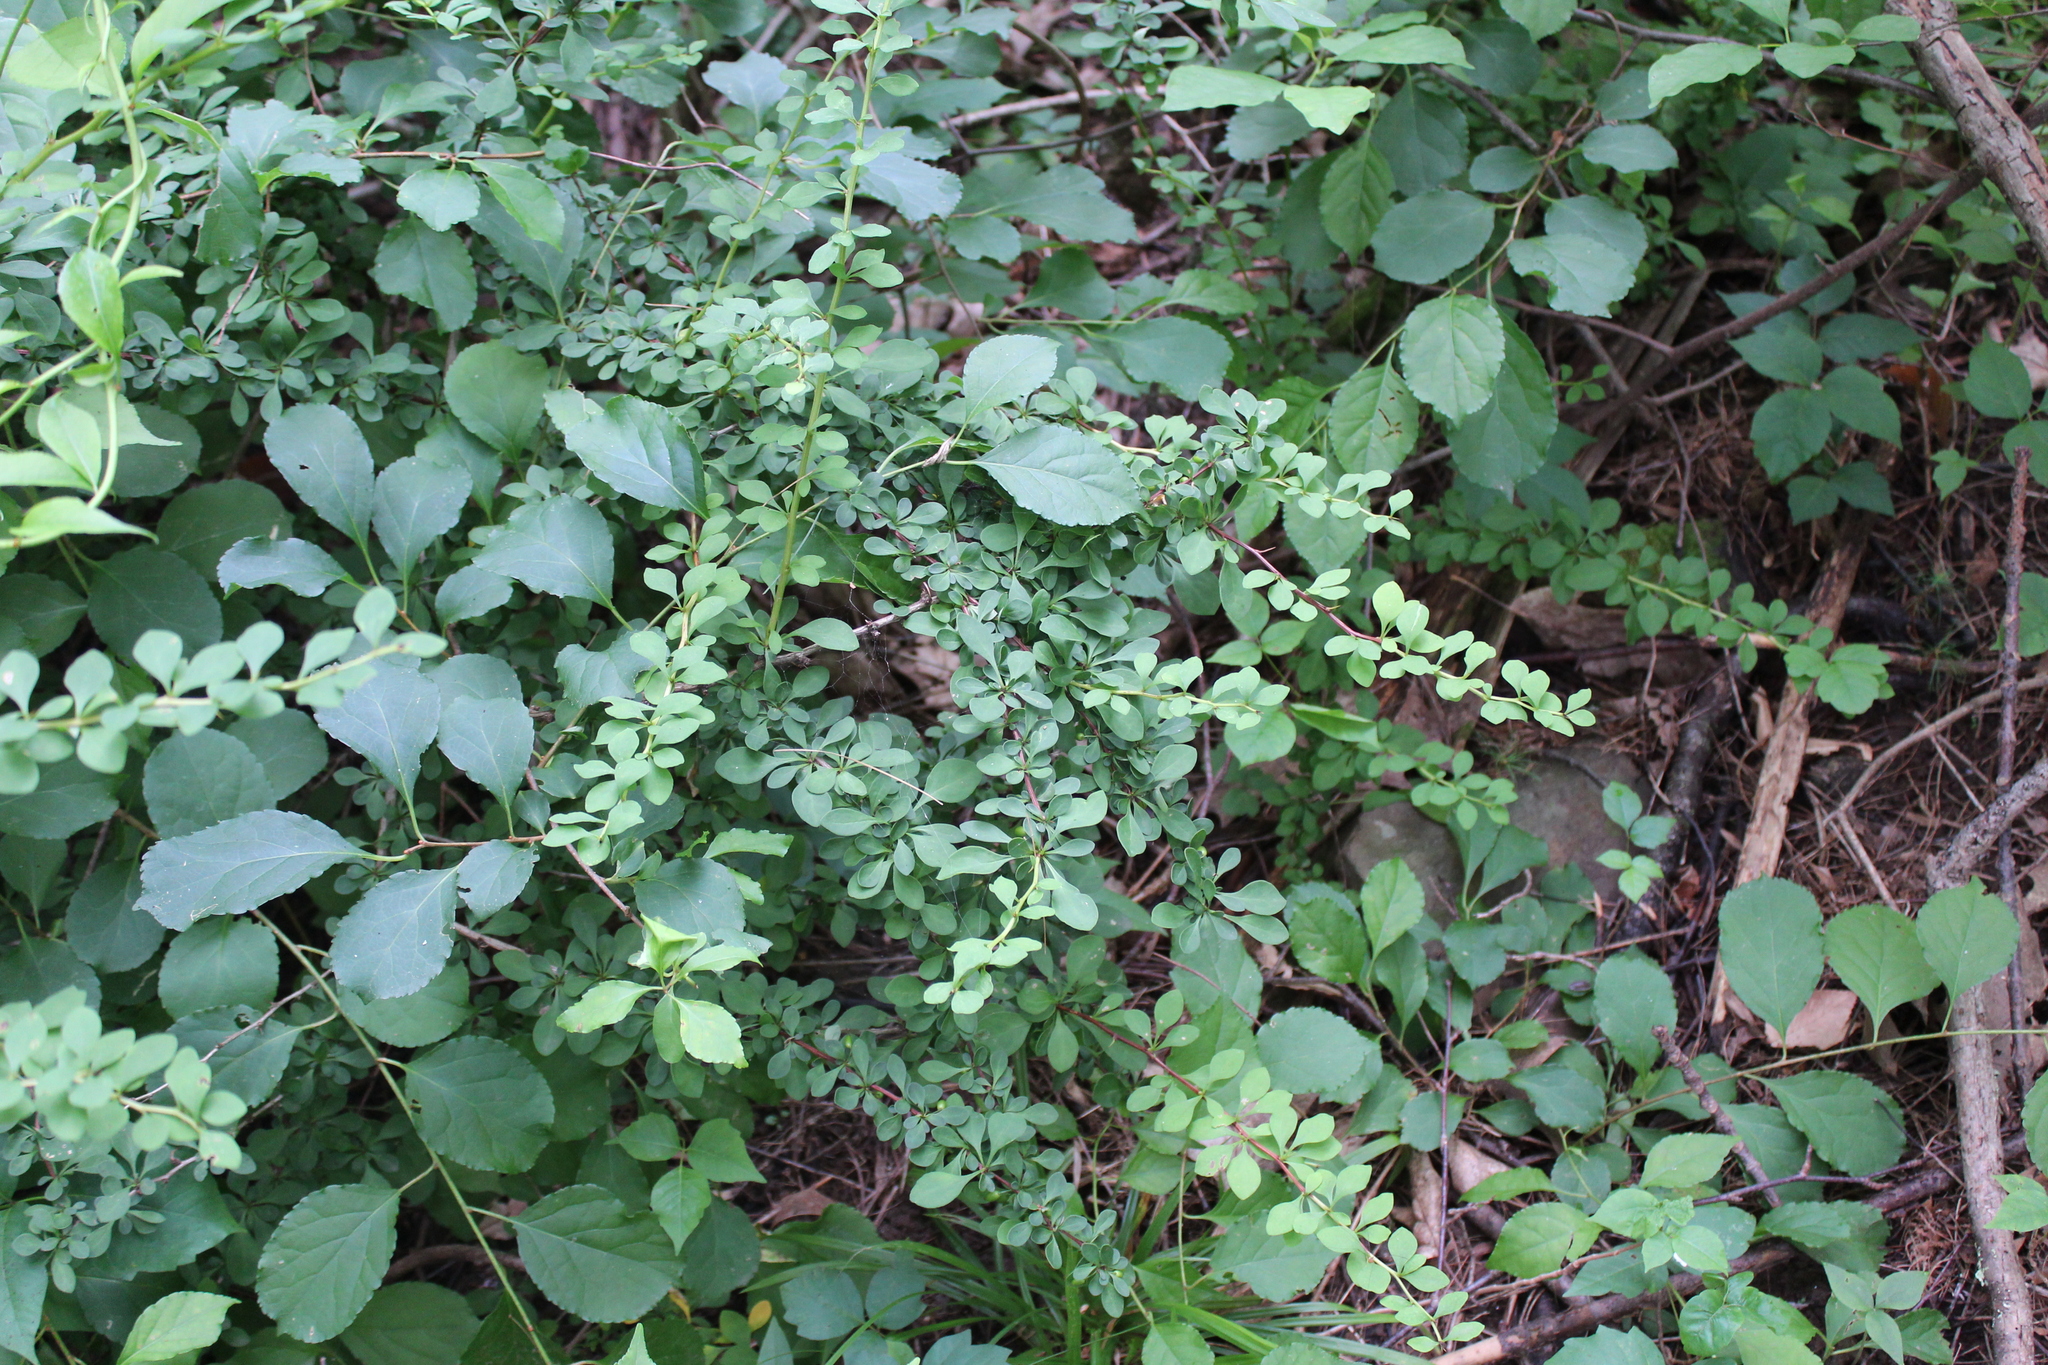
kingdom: Plantae
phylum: Tracheophyta
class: Magnoliopsida
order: Ranunculales
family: Berberidaceae
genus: Berberis
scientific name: Berberis thunbergii
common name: Japanese barberry
